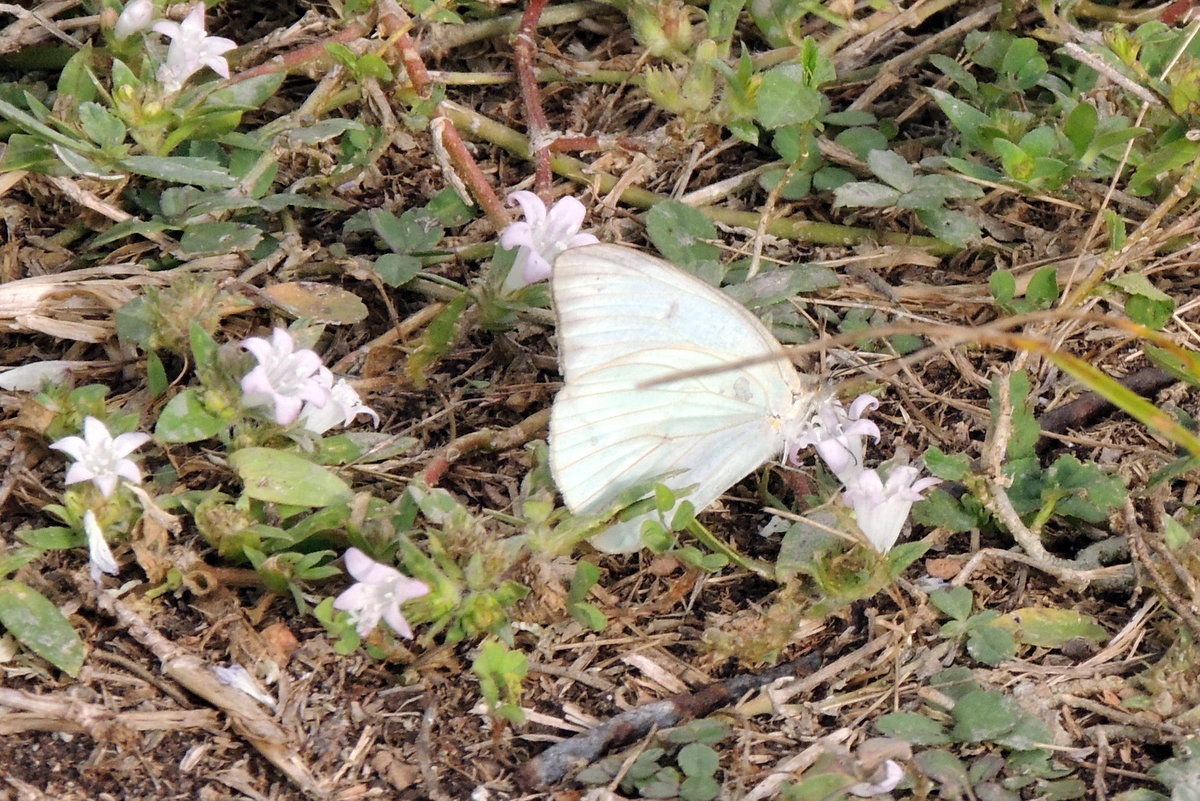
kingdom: Animalia
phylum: Arthropoda
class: Insecta
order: Lepidoptera
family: Pieridae
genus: Ascia
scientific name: Ascia monuste
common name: Great southern white
